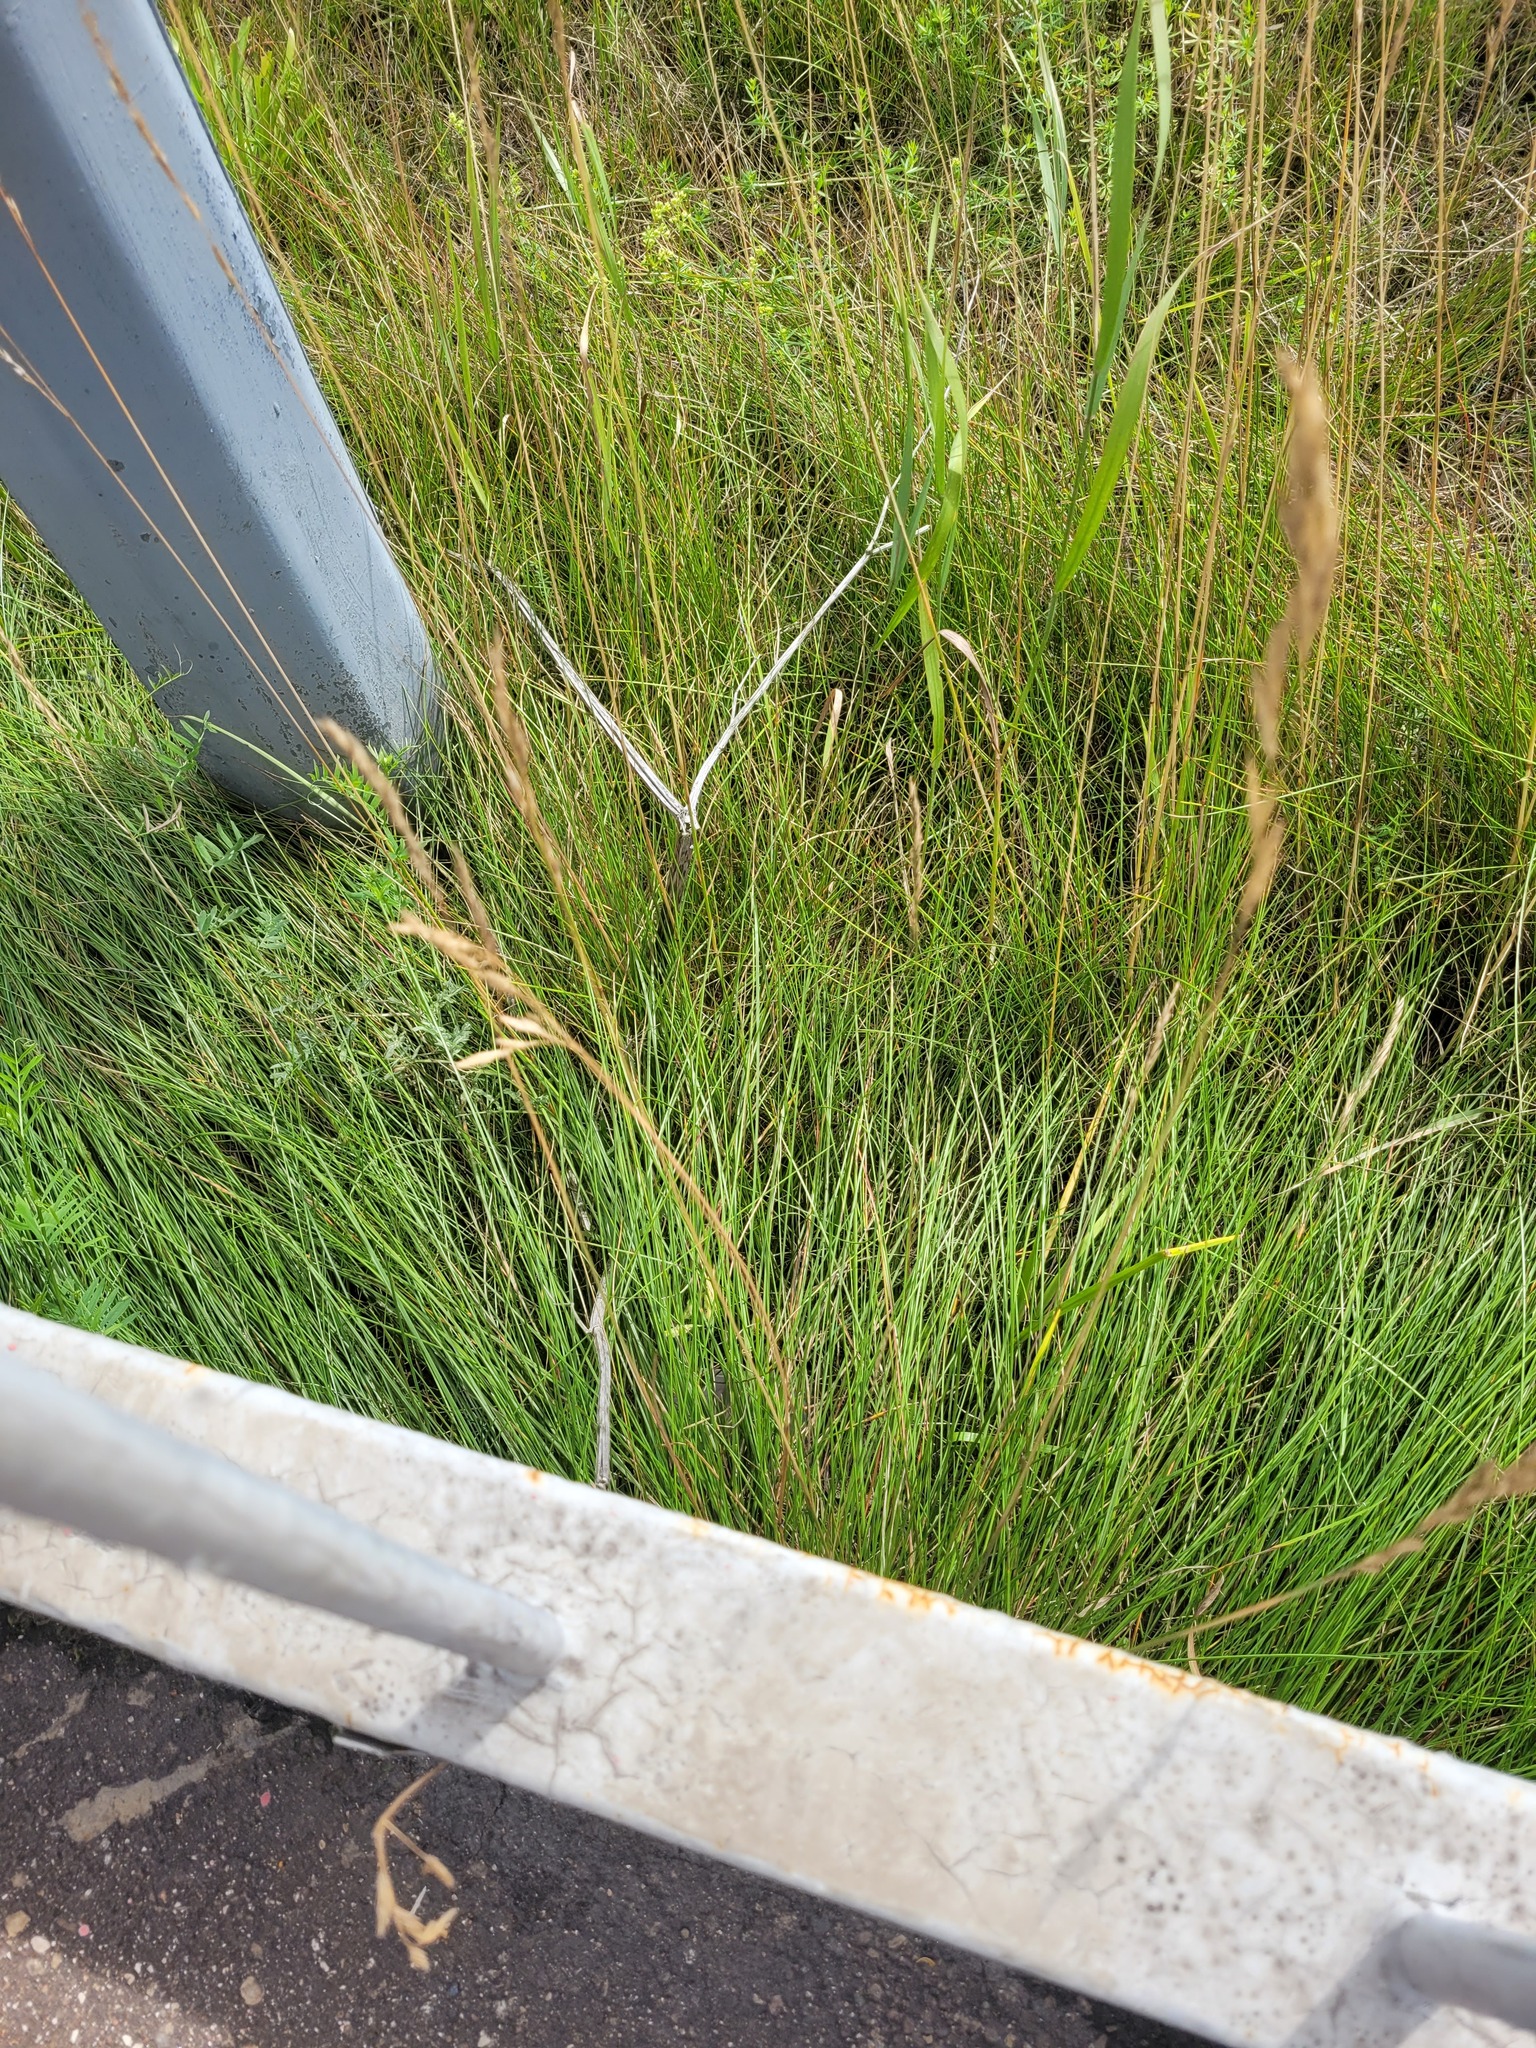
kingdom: Plantae
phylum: Tracheophyta
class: Liliopsida
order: Poales
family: Poaceae
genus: Festuca
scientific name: Festuca rubra
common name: Red fescue
